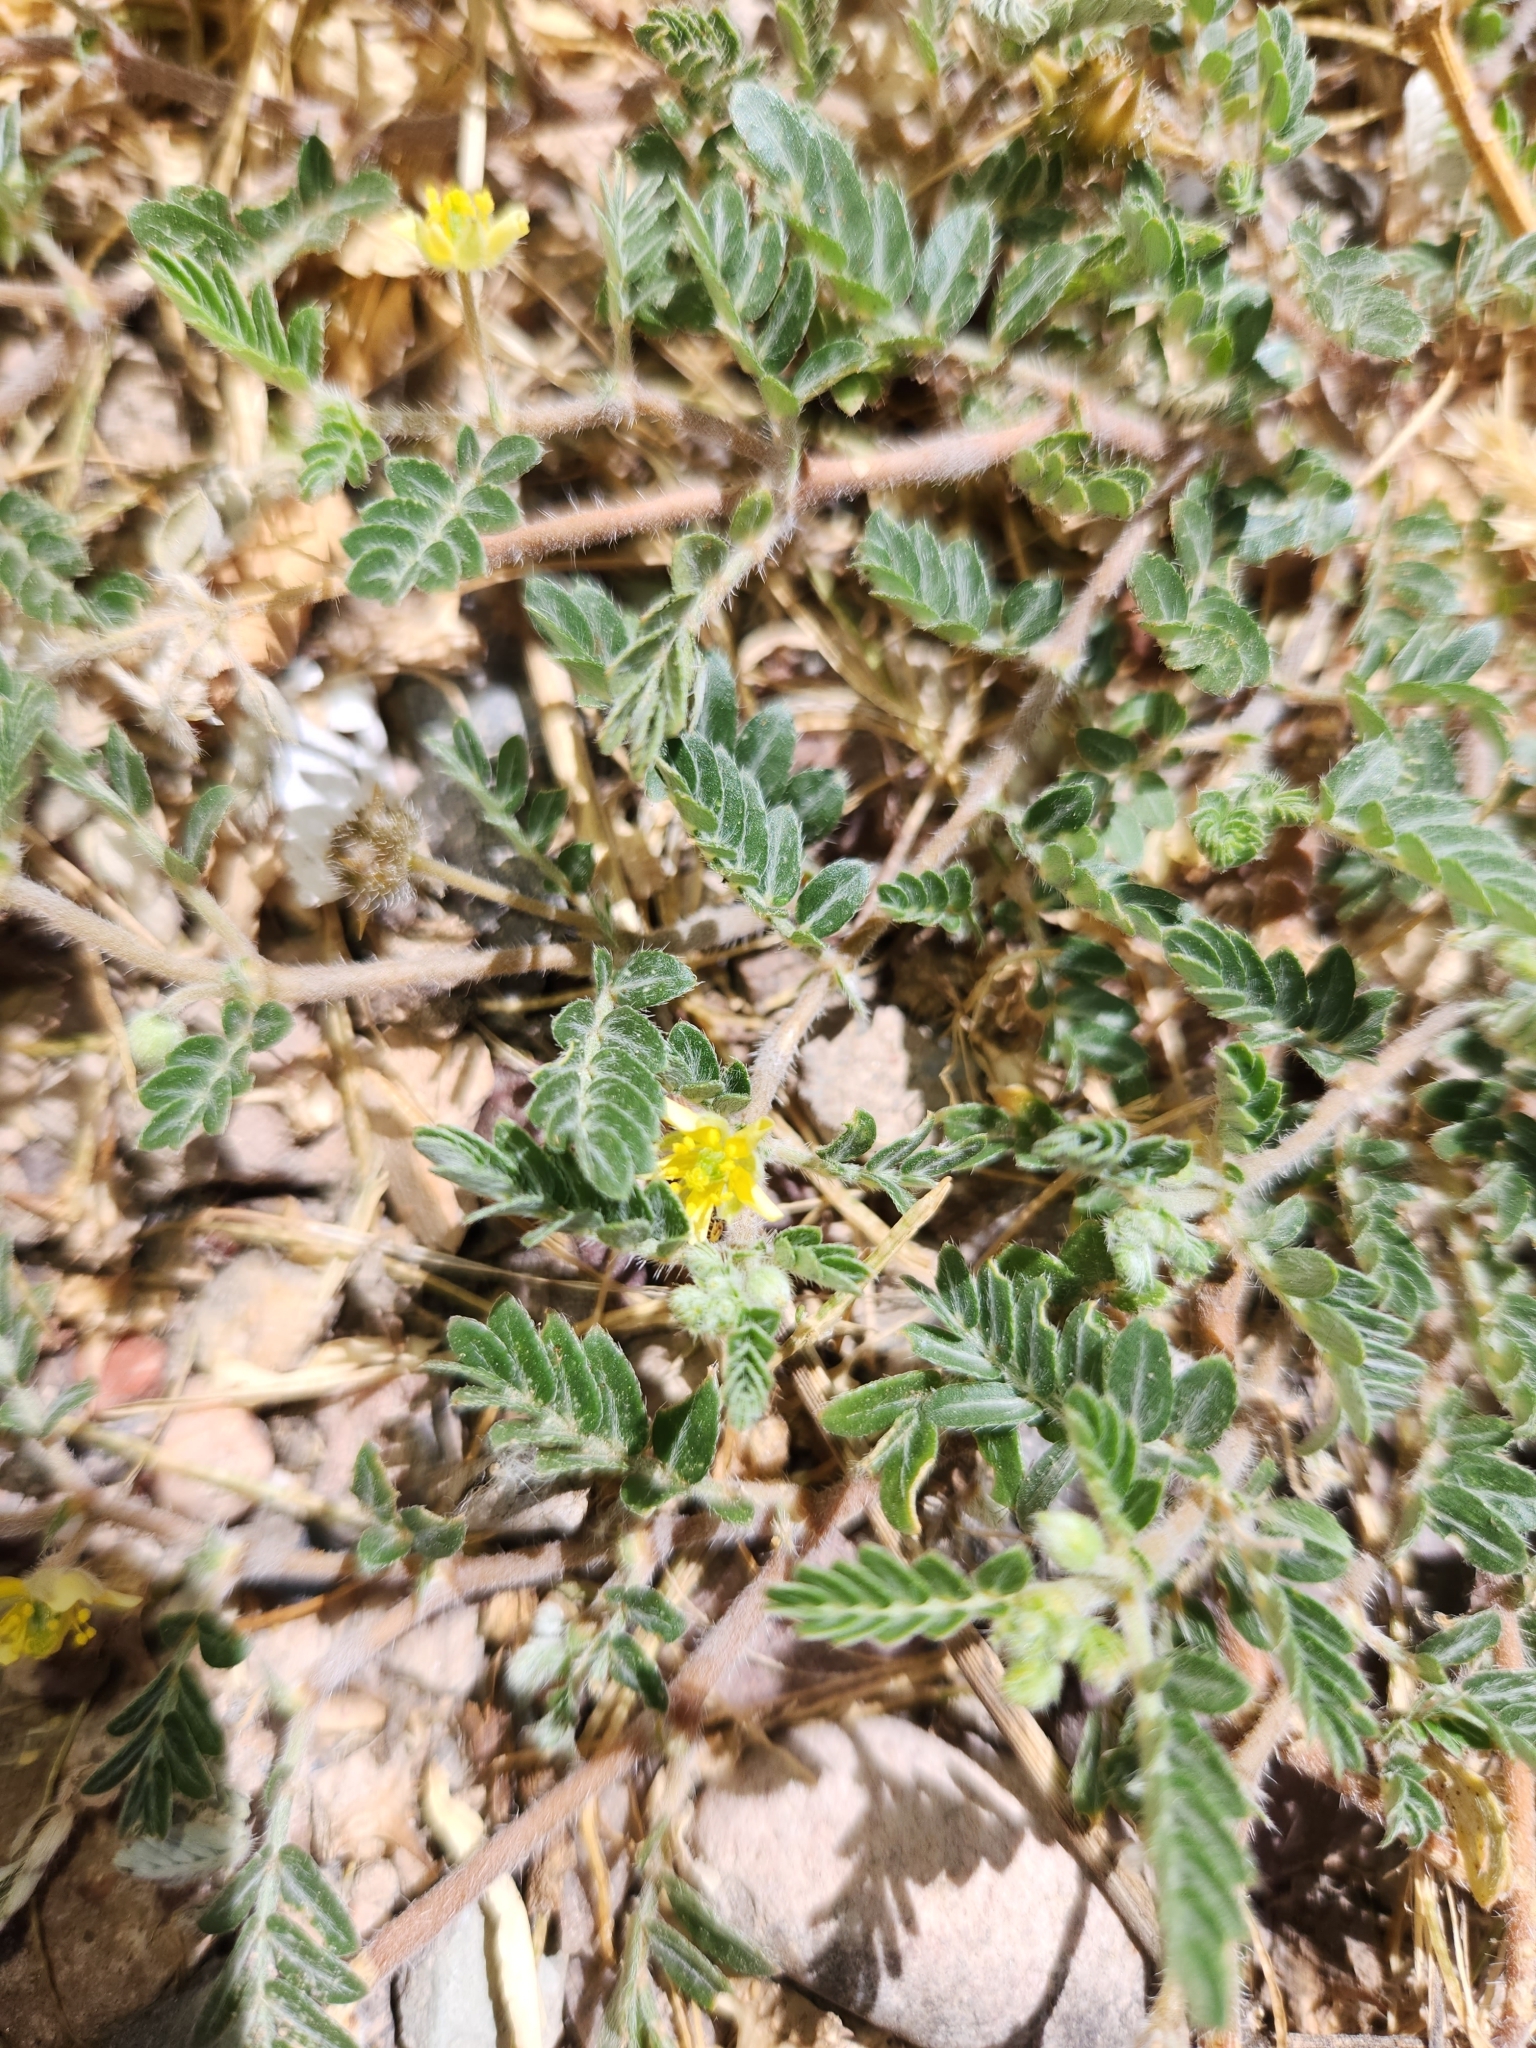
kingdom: Plantae
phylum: Tracheophyta
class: Magnoliopsida
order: Zygophyllales
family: Zygophyllaceae
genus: Tribulus
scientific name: Tribulus terrestris
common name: Puncturevine
